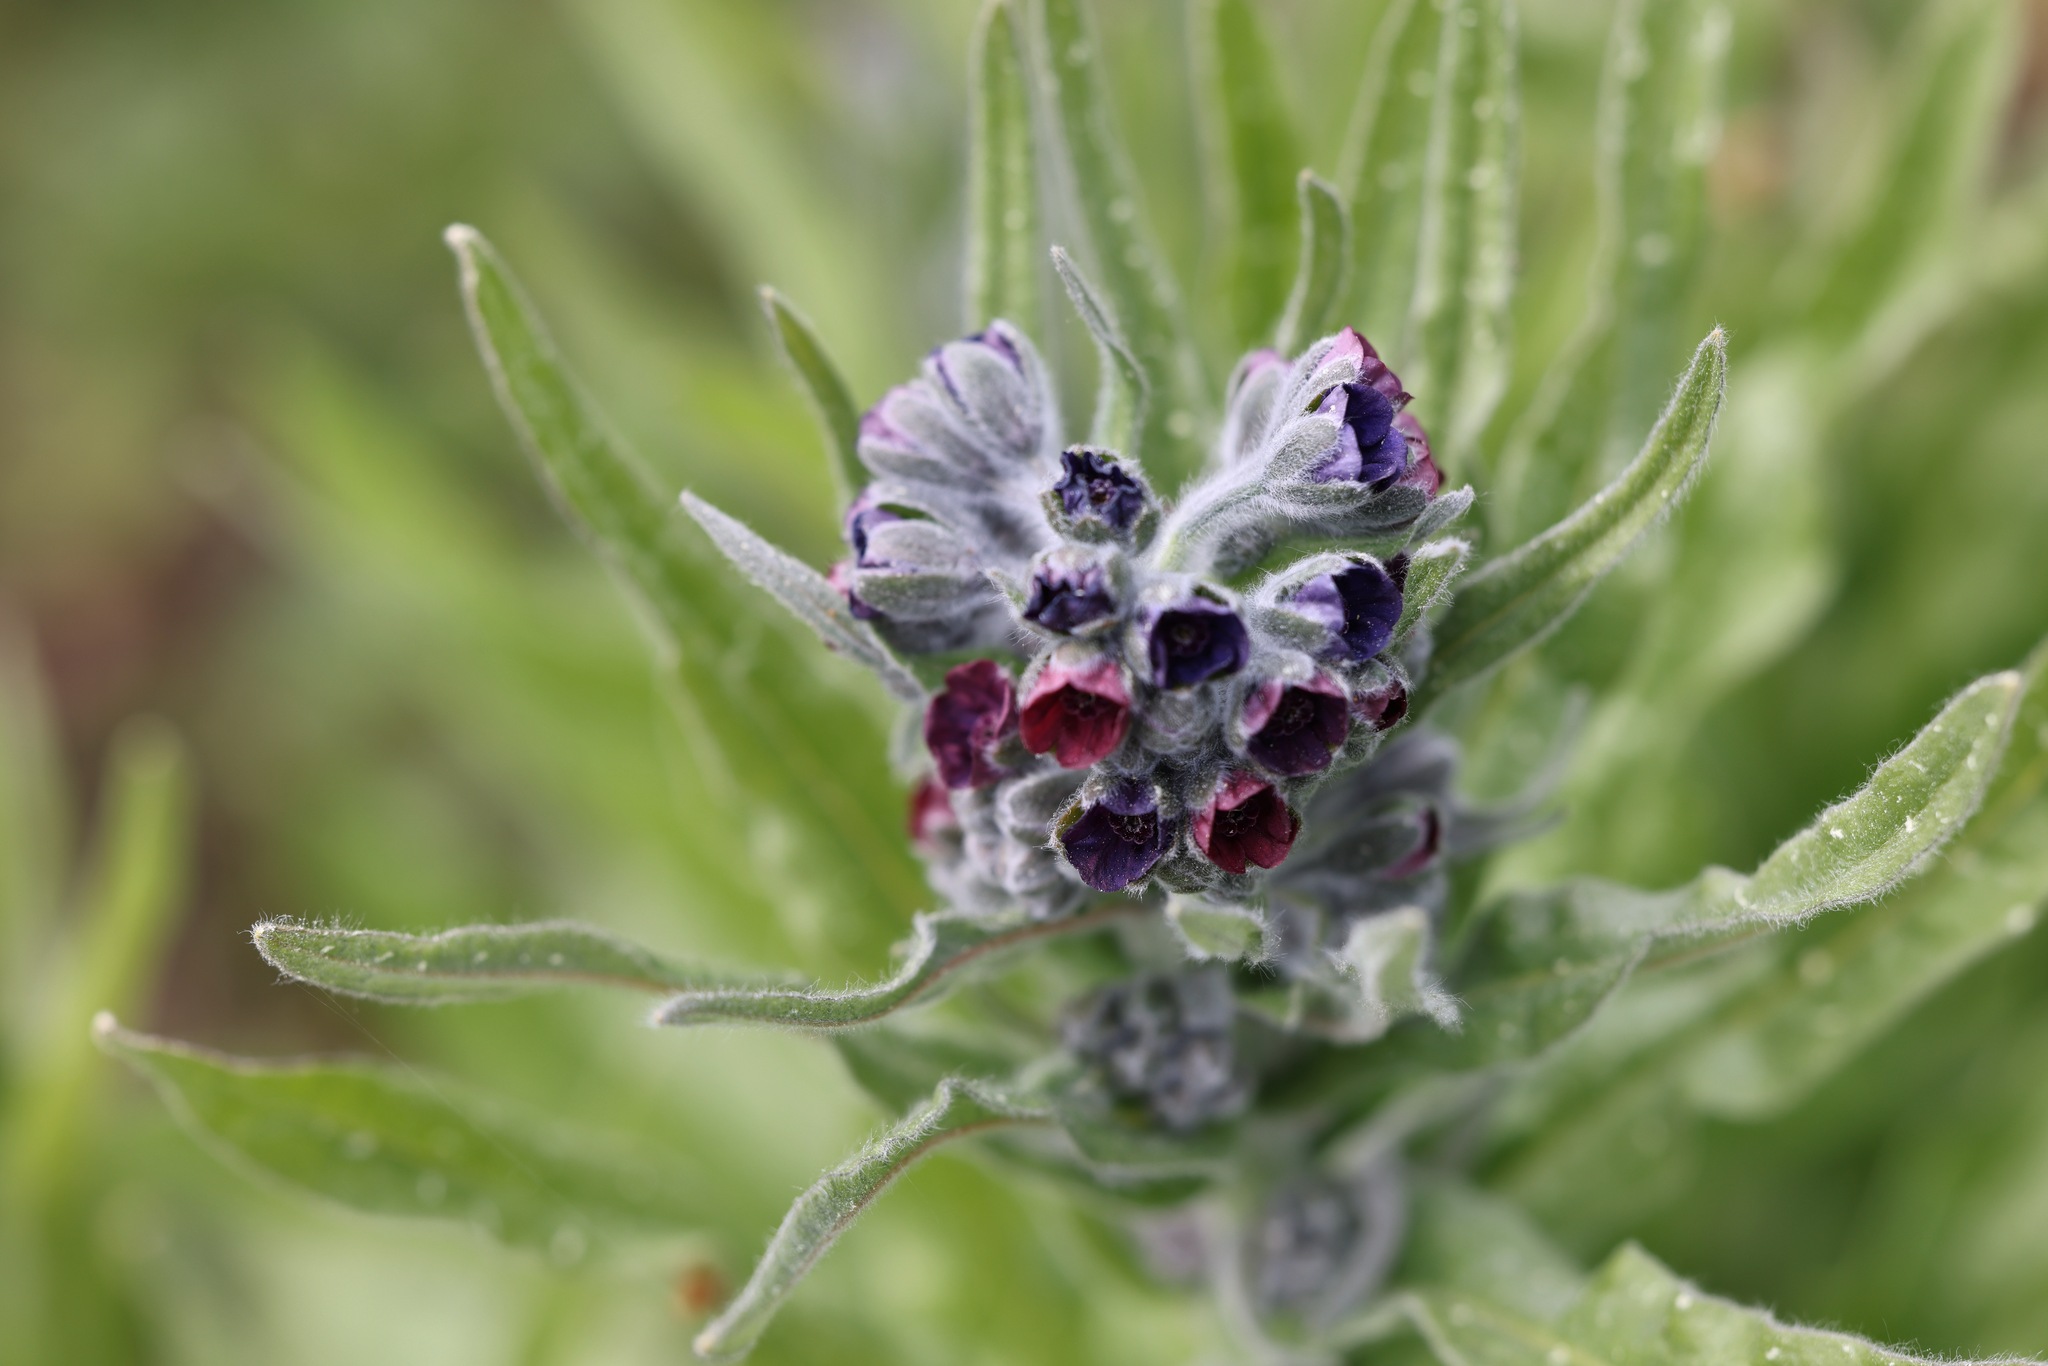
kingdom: Plantae
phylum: Tracheophyta
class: Magnoliopsida
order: Boraginales
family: Boraginaceae
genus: Cynoglossum
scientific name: Cynoglossum officinale
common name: Hound's-tongue
